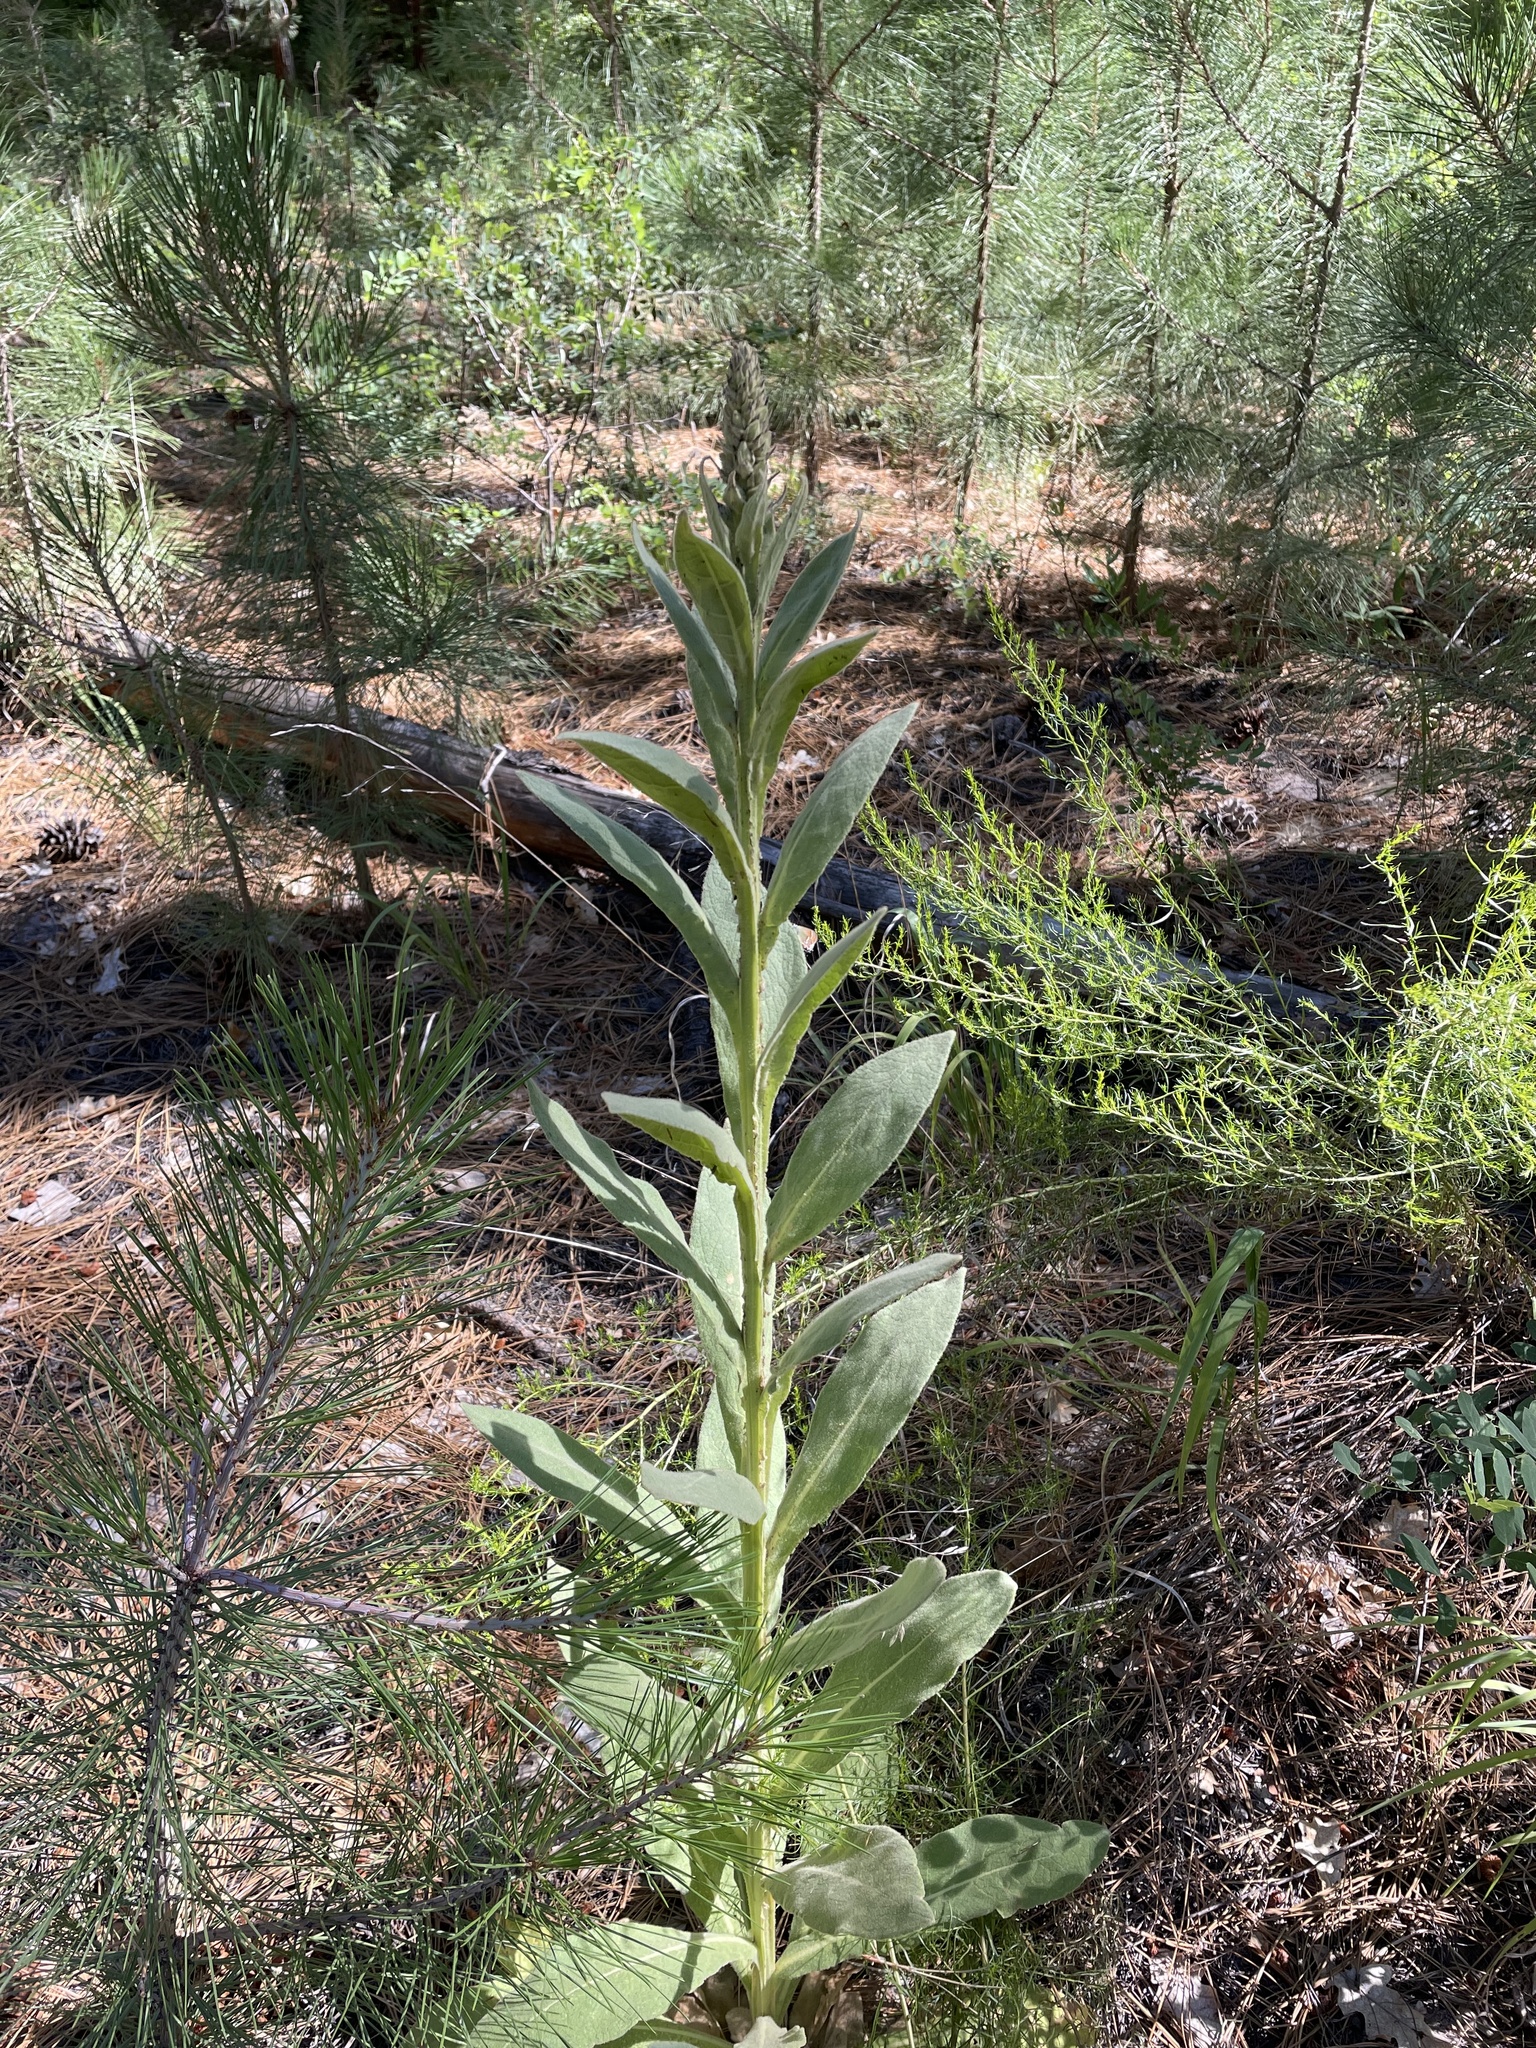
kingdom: Plantae
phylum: Tracheophyta
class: Magnoliopsida
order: Lamiales
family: Scrophulariaceae
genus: Verbascum
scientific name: Verbascum thapsus
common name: Common mullein
